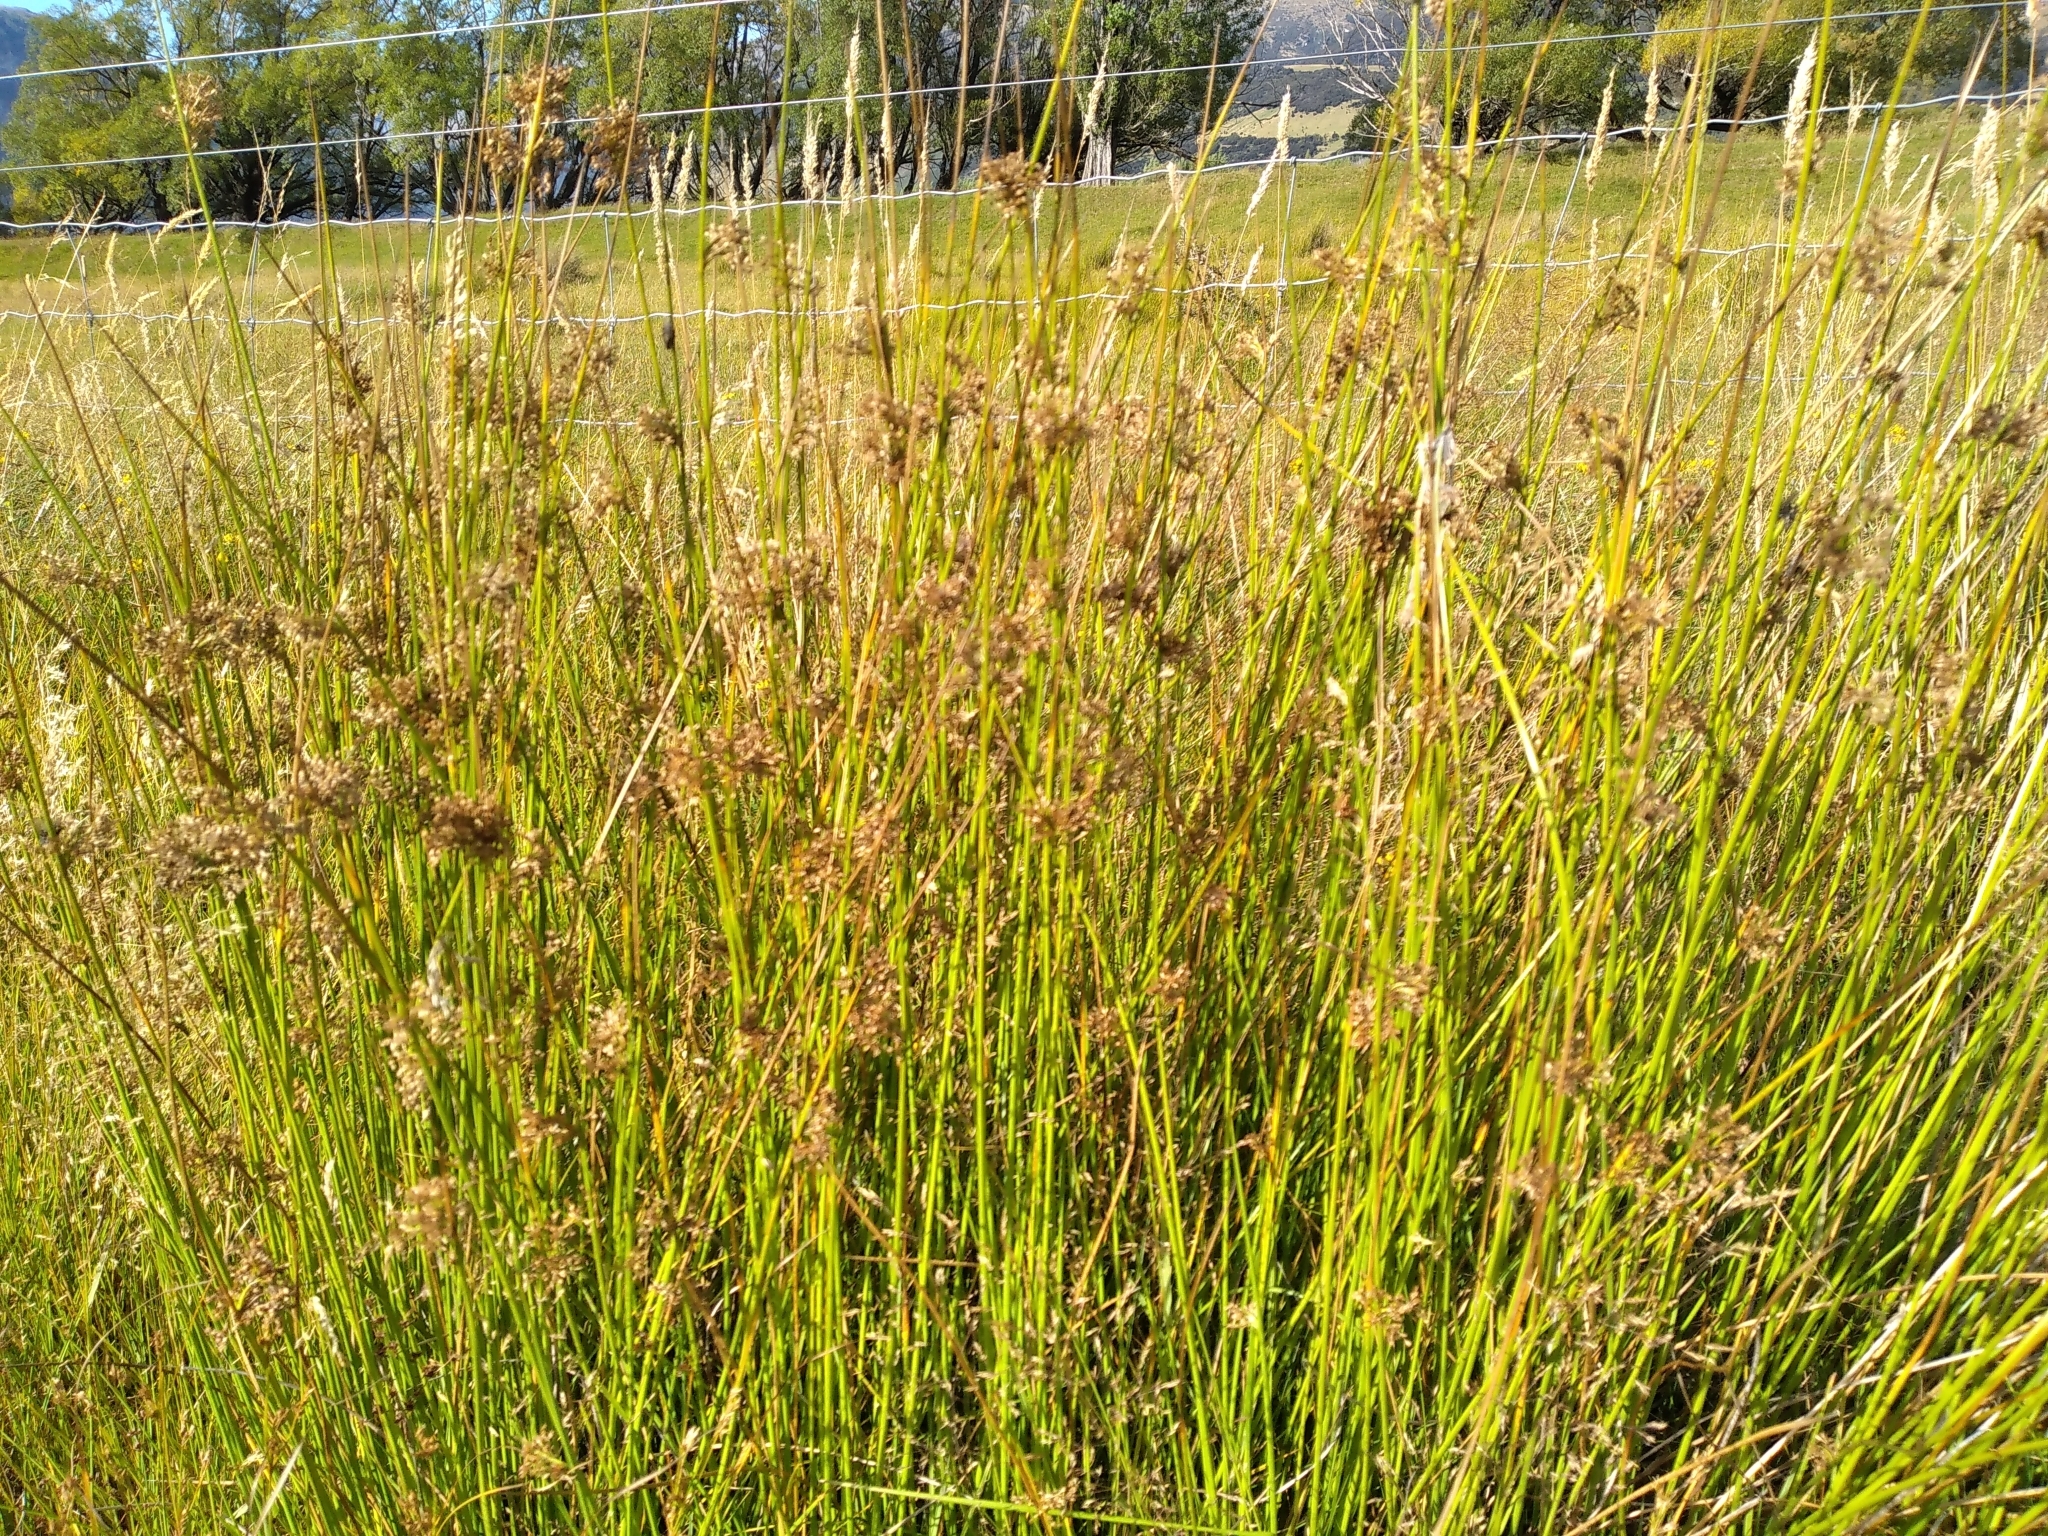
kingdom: Plantae
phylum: Tracheophyta
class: Liliopsida
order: Poales
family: Juncaceae
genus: Juncus
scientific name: Juncus effusus
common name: Soft rush
